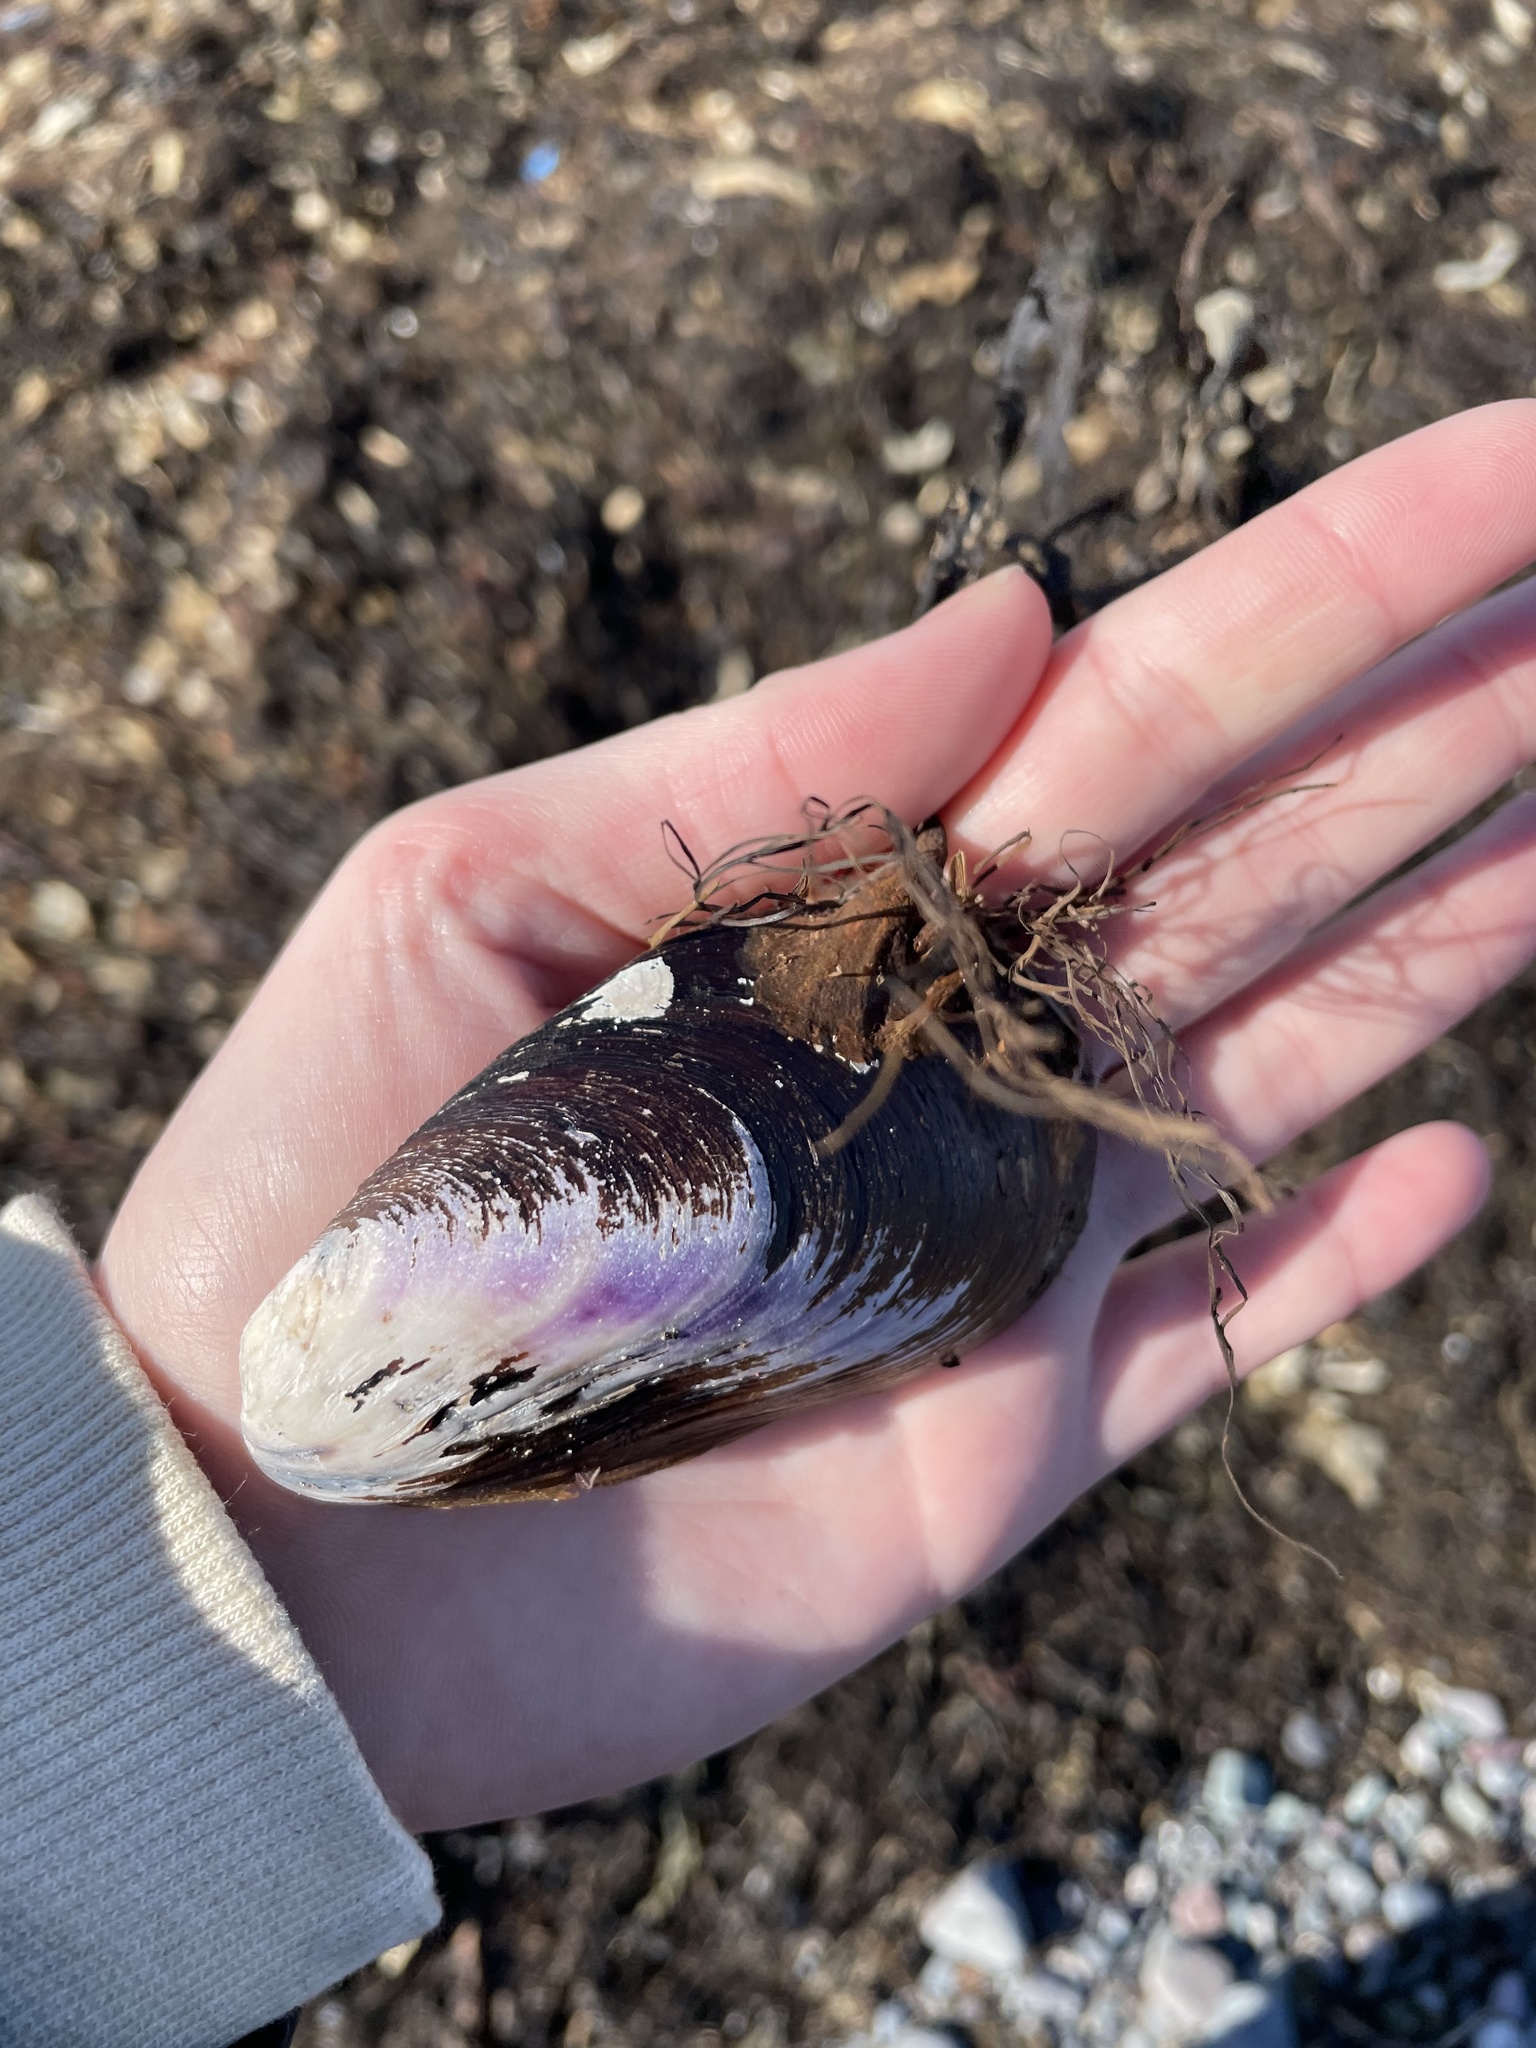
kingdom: Animalia
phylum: Mollusca
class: Bivalvia
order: Mytilida
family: Mytilidae
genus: Modiolus
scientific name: Modiolus modiolus
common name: Horse-mussel
